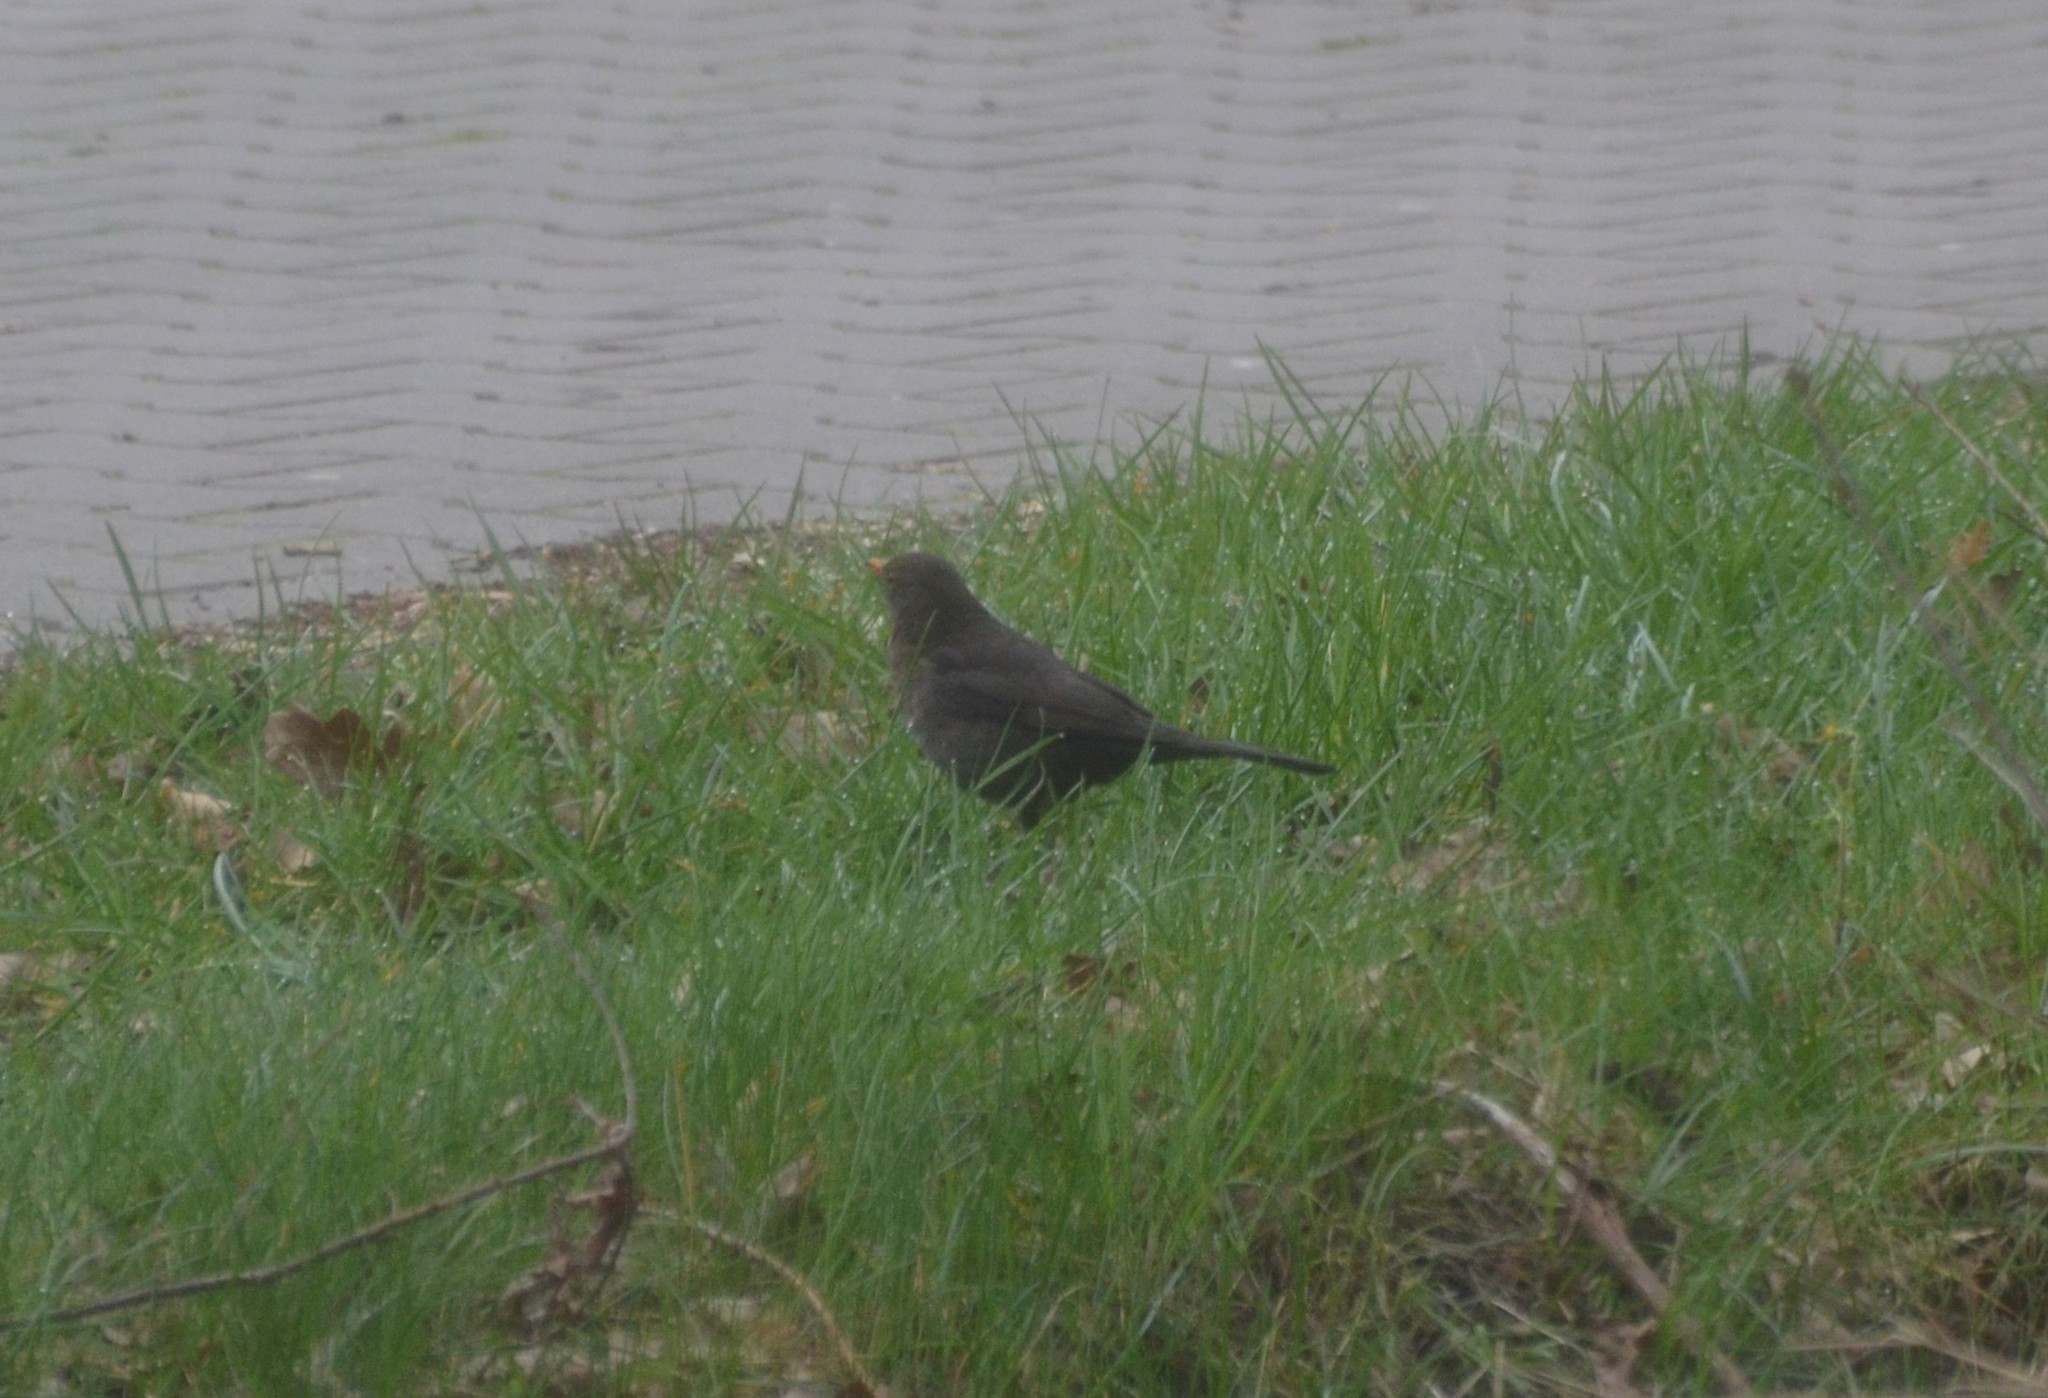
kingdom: Animalia
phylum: Chordata
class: Aves
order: Passeriformes
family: Turdidae
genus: Turdus
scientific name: Turdus merula
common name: Common blackbird
